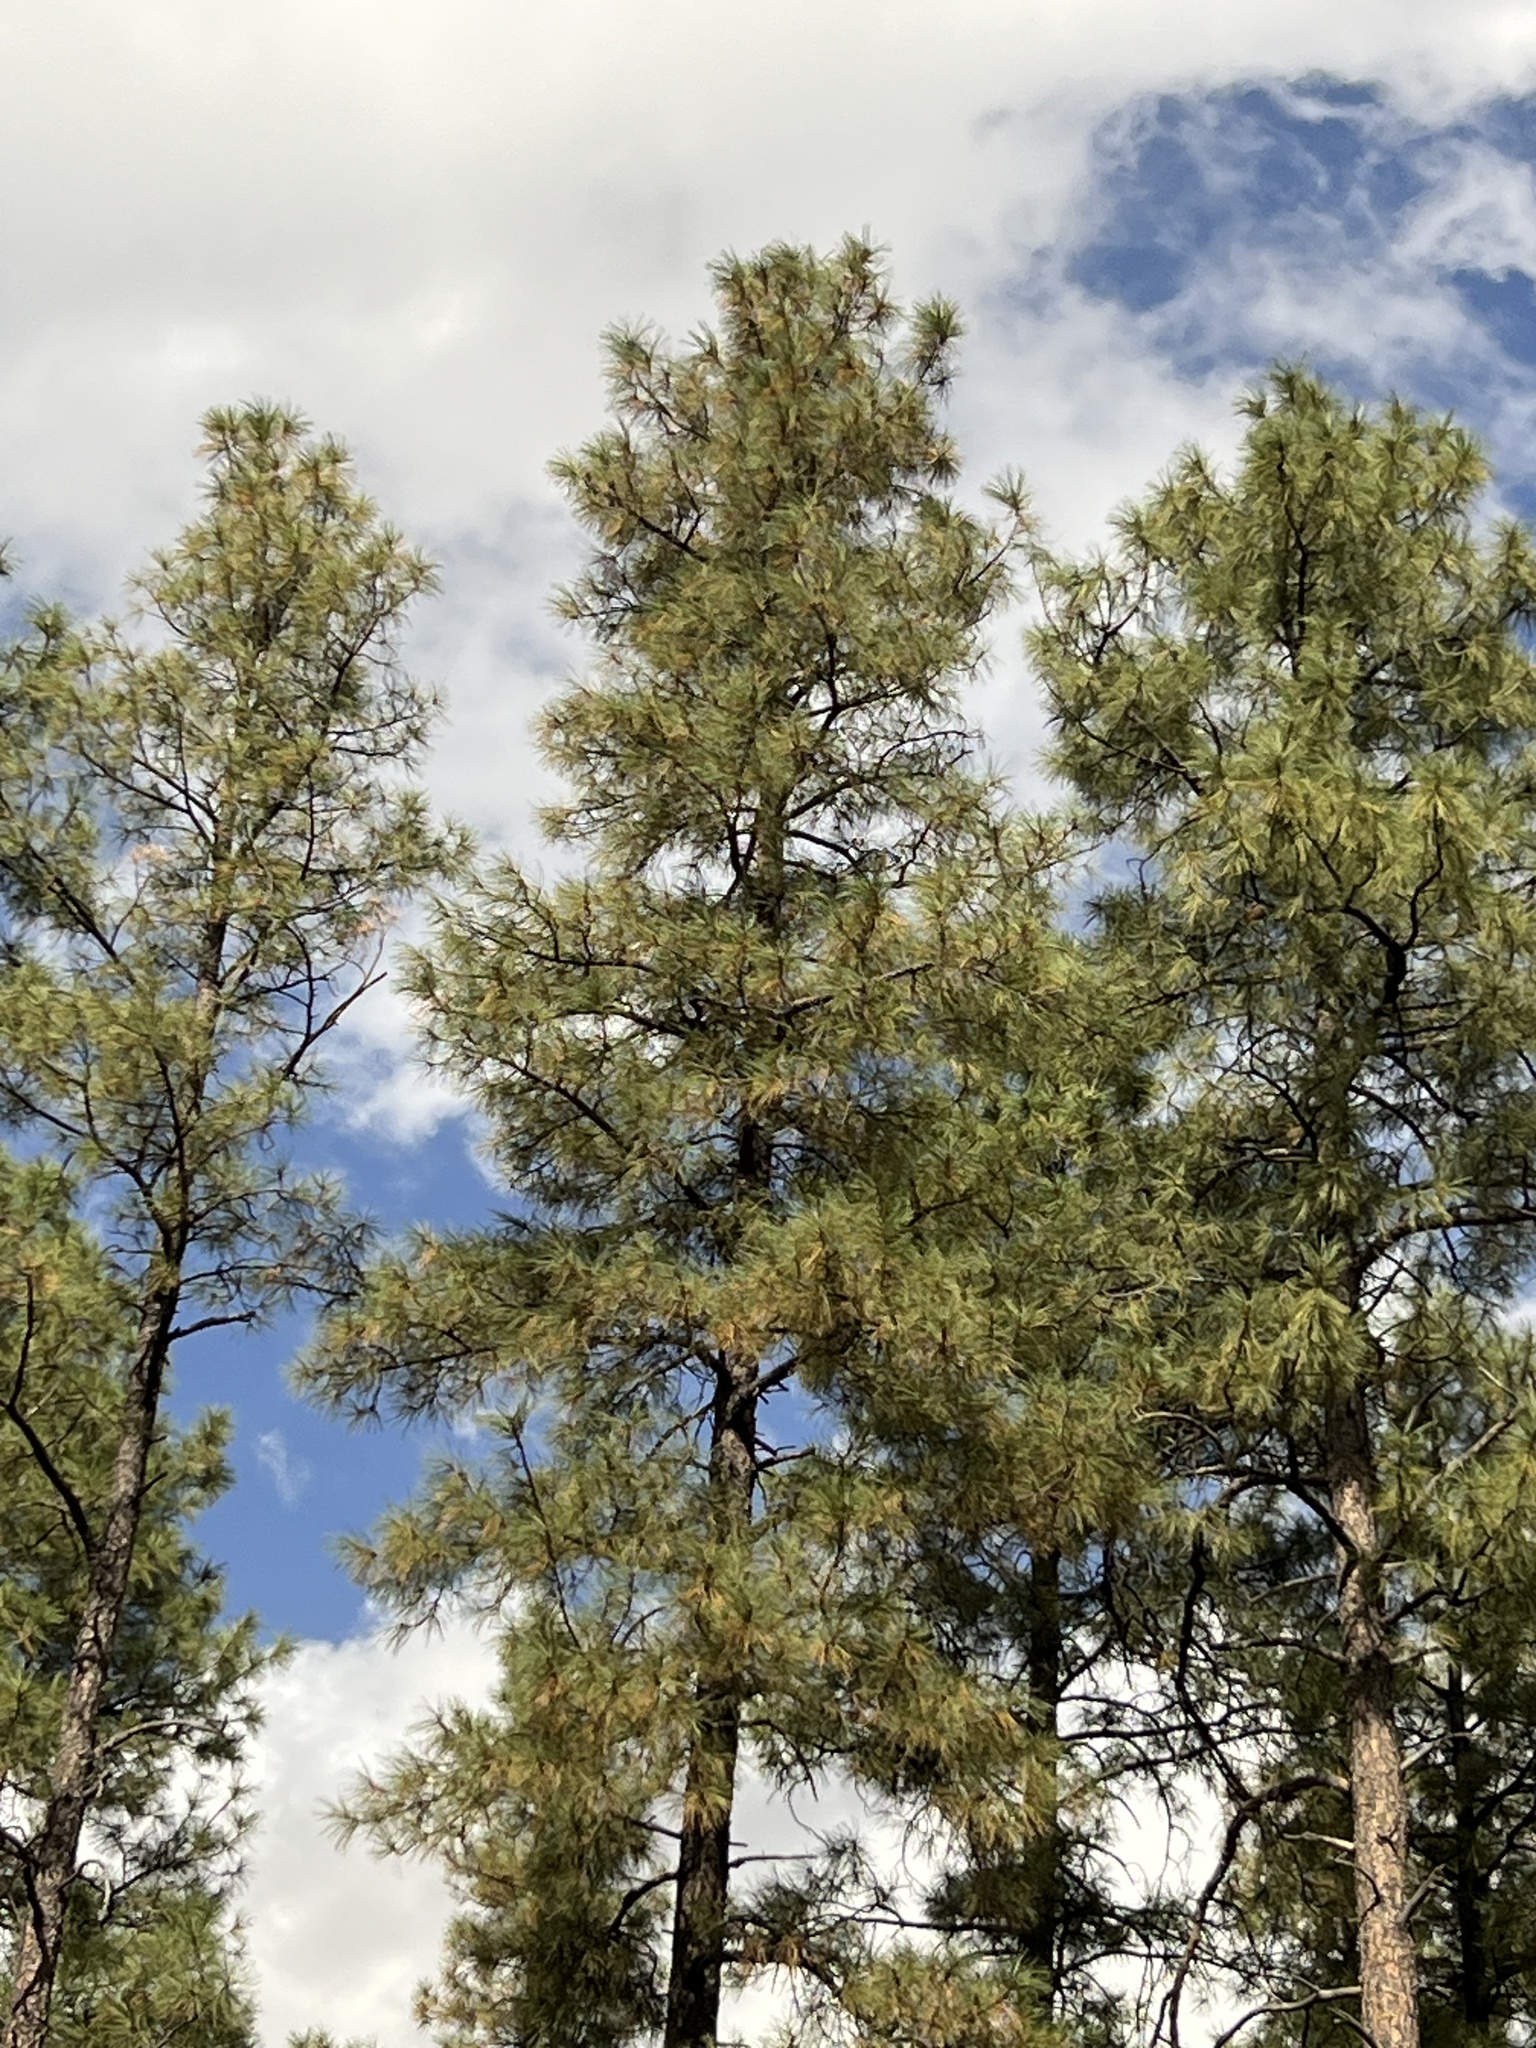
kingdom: Plantae
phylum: Tracheophyta
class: Pinopsida
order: Pinales
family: Pinaceae
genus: Pinus
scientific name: Pinus ponderosa
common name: Western yellow-pine
